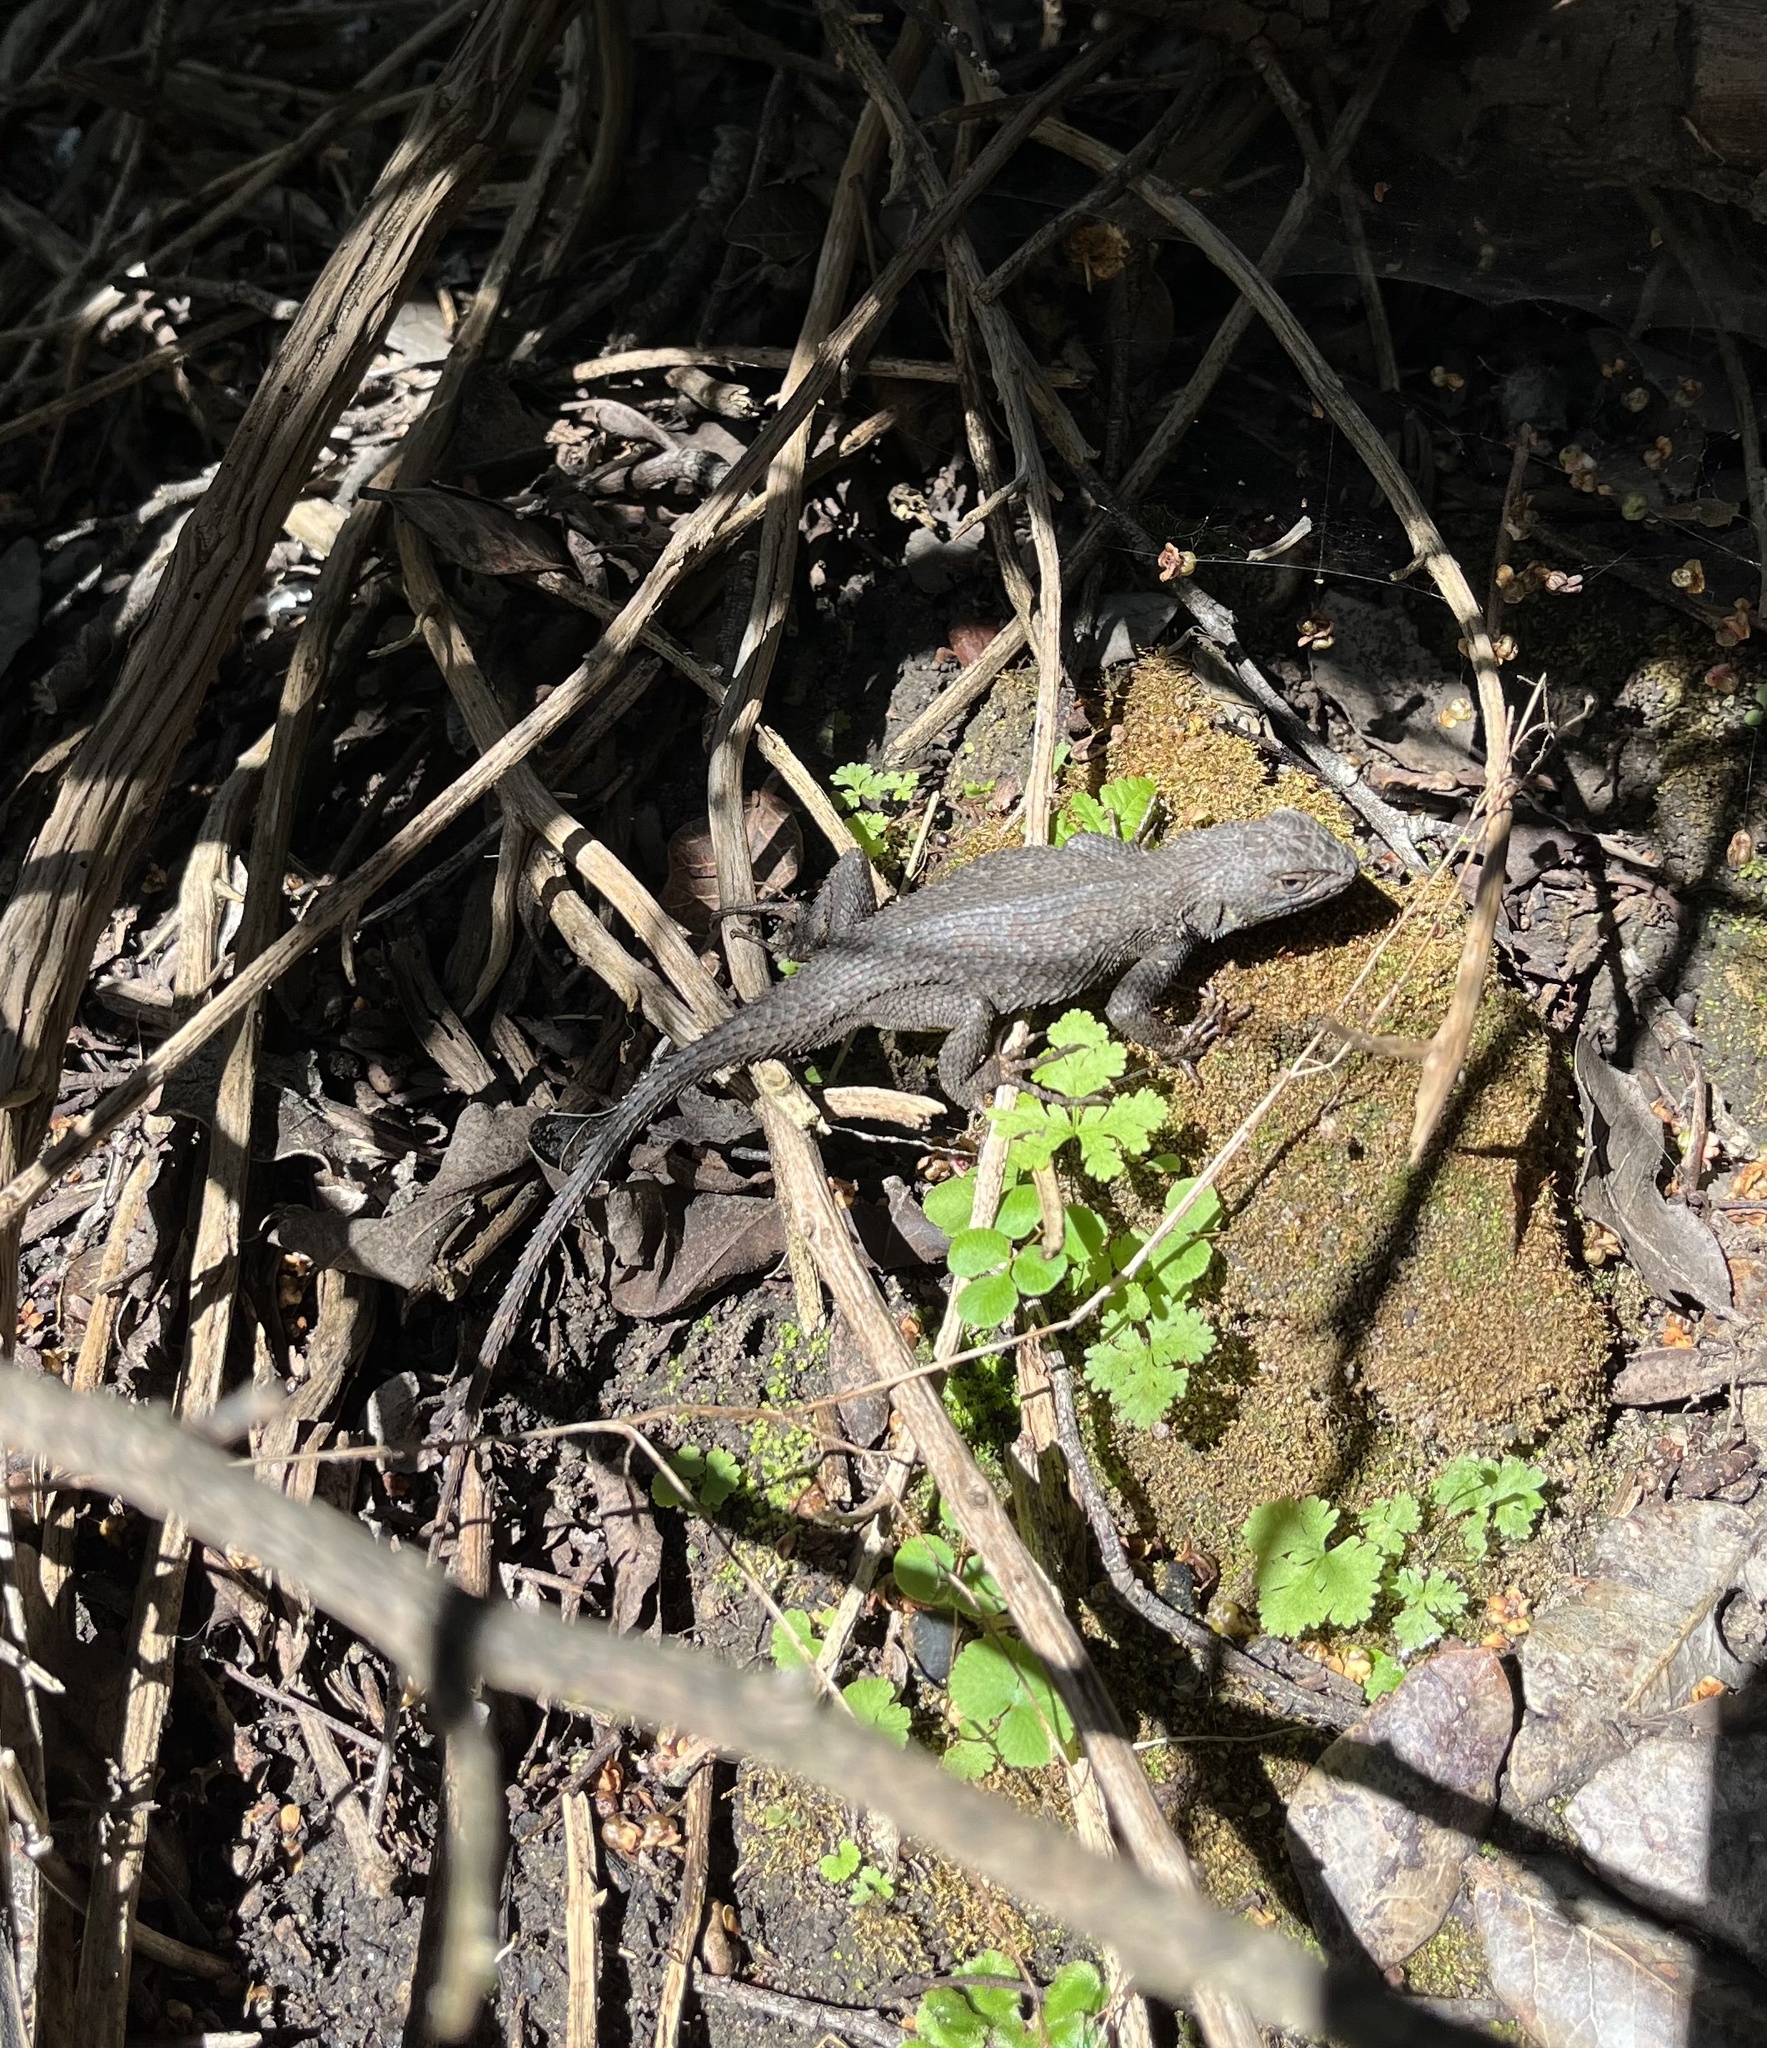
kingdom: Animalia
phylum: Chordata
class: Squamata
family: Phrynosomatidae
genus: Sceloporus
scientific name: Sceloporus occidentalis
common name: Western fence lizard
